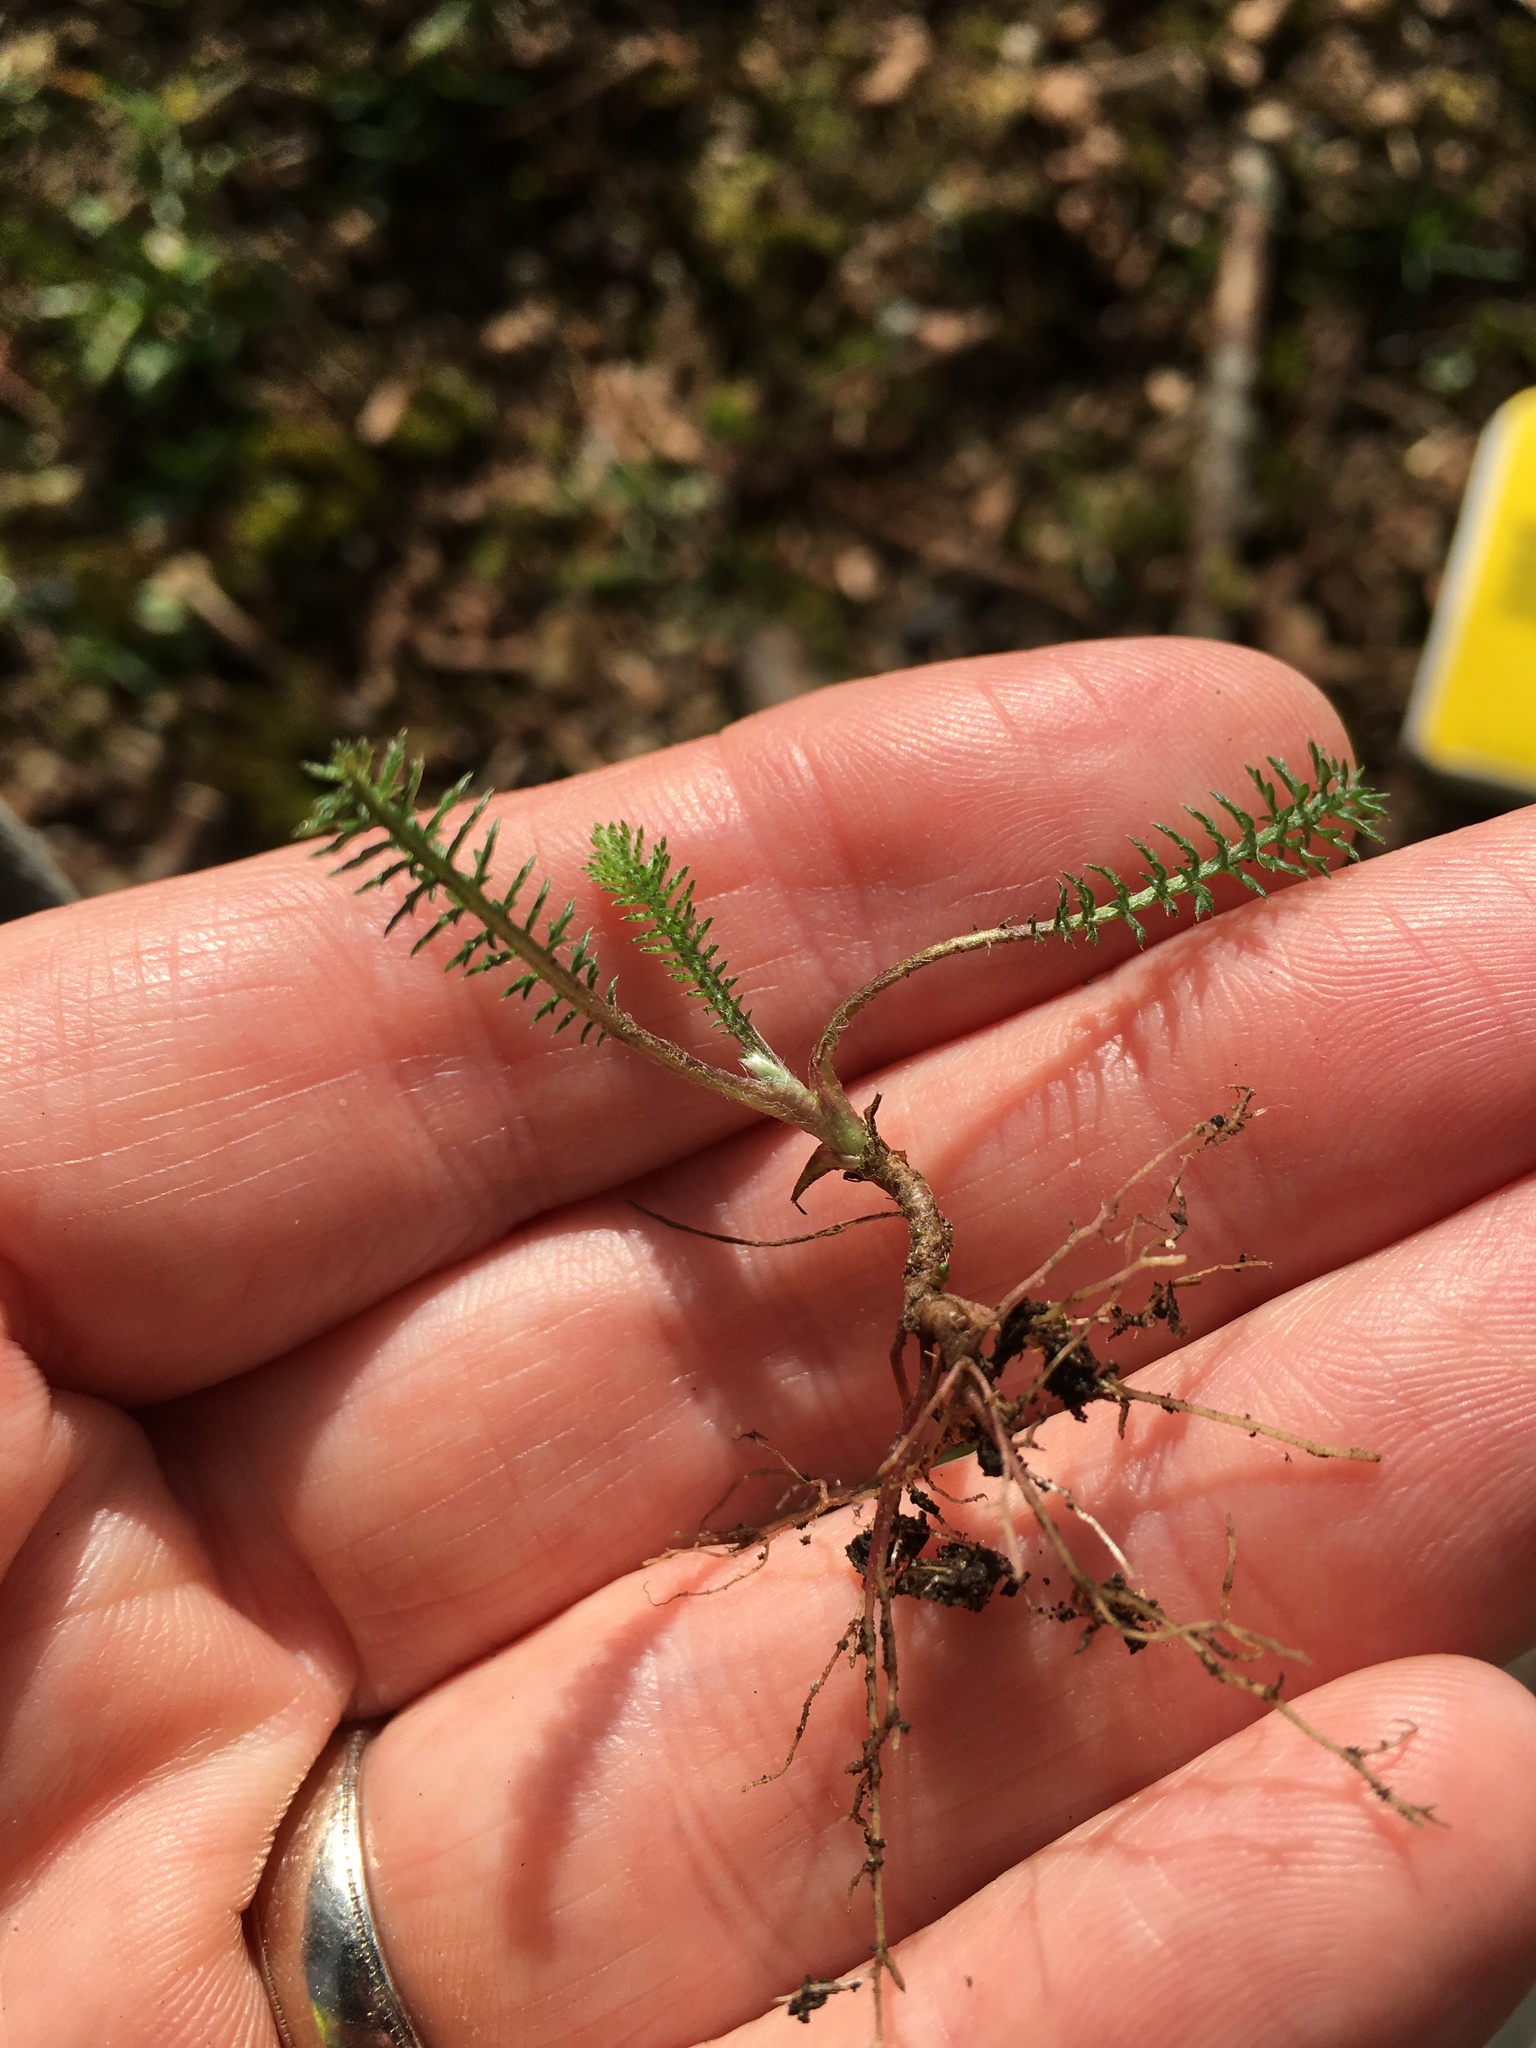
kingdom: Plantae
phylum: Tracheophyta
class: Magnoliopsida
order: Asterales
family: Asteraceae
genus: Achillea
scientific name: Achillea millefolium
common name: Yarrow
